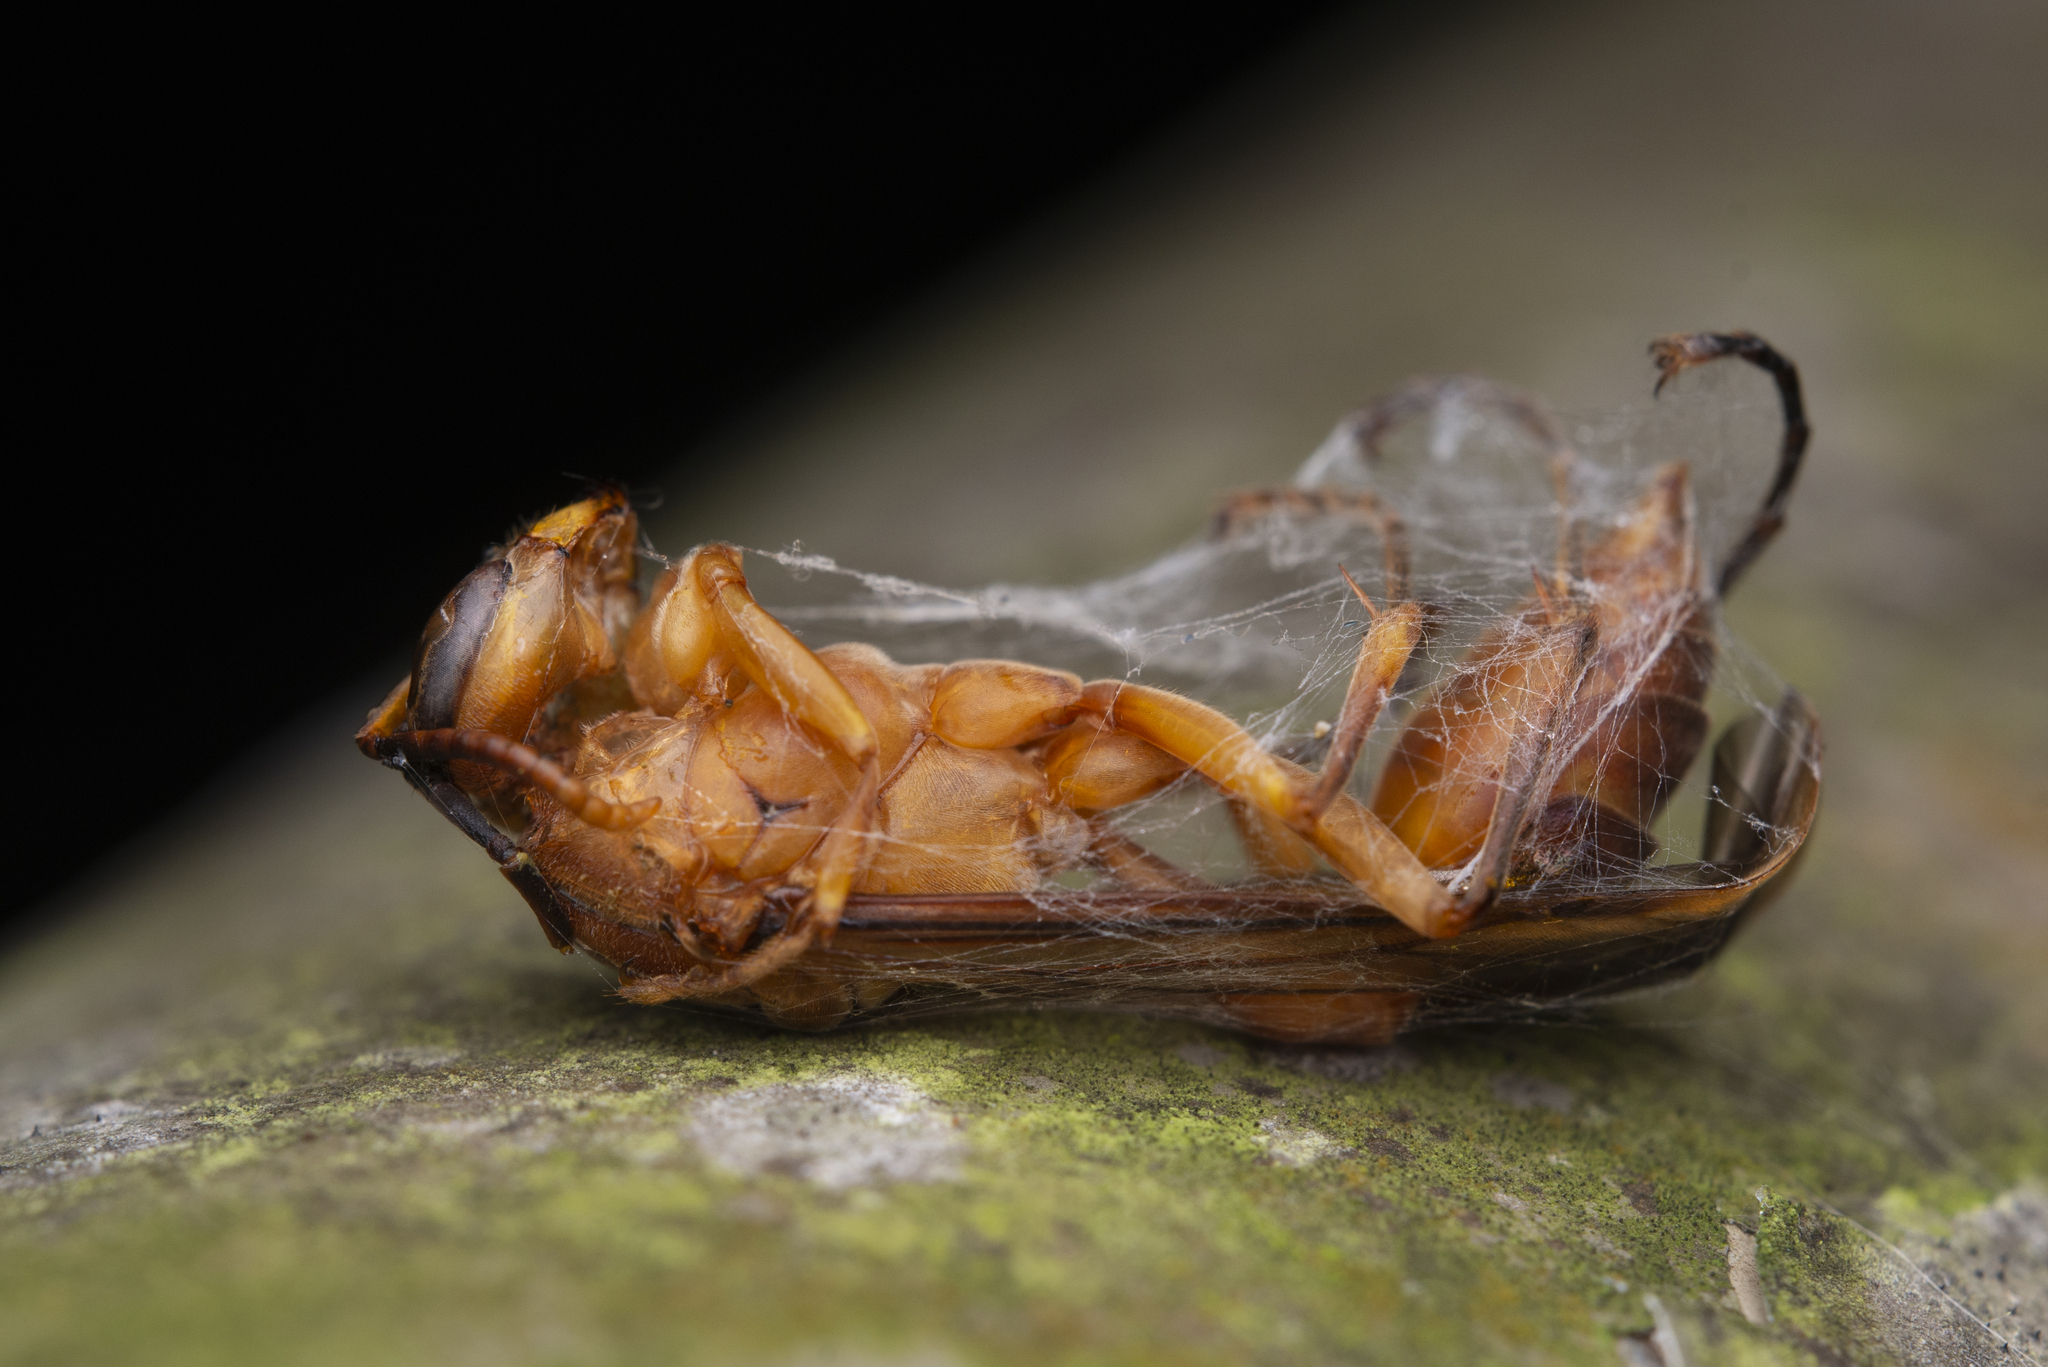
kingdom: Animalia
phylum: Arthropoda
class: Insecta
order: Hymenoptera
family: Vespidae
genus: Parapolybia
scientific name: Parapolybia indica
